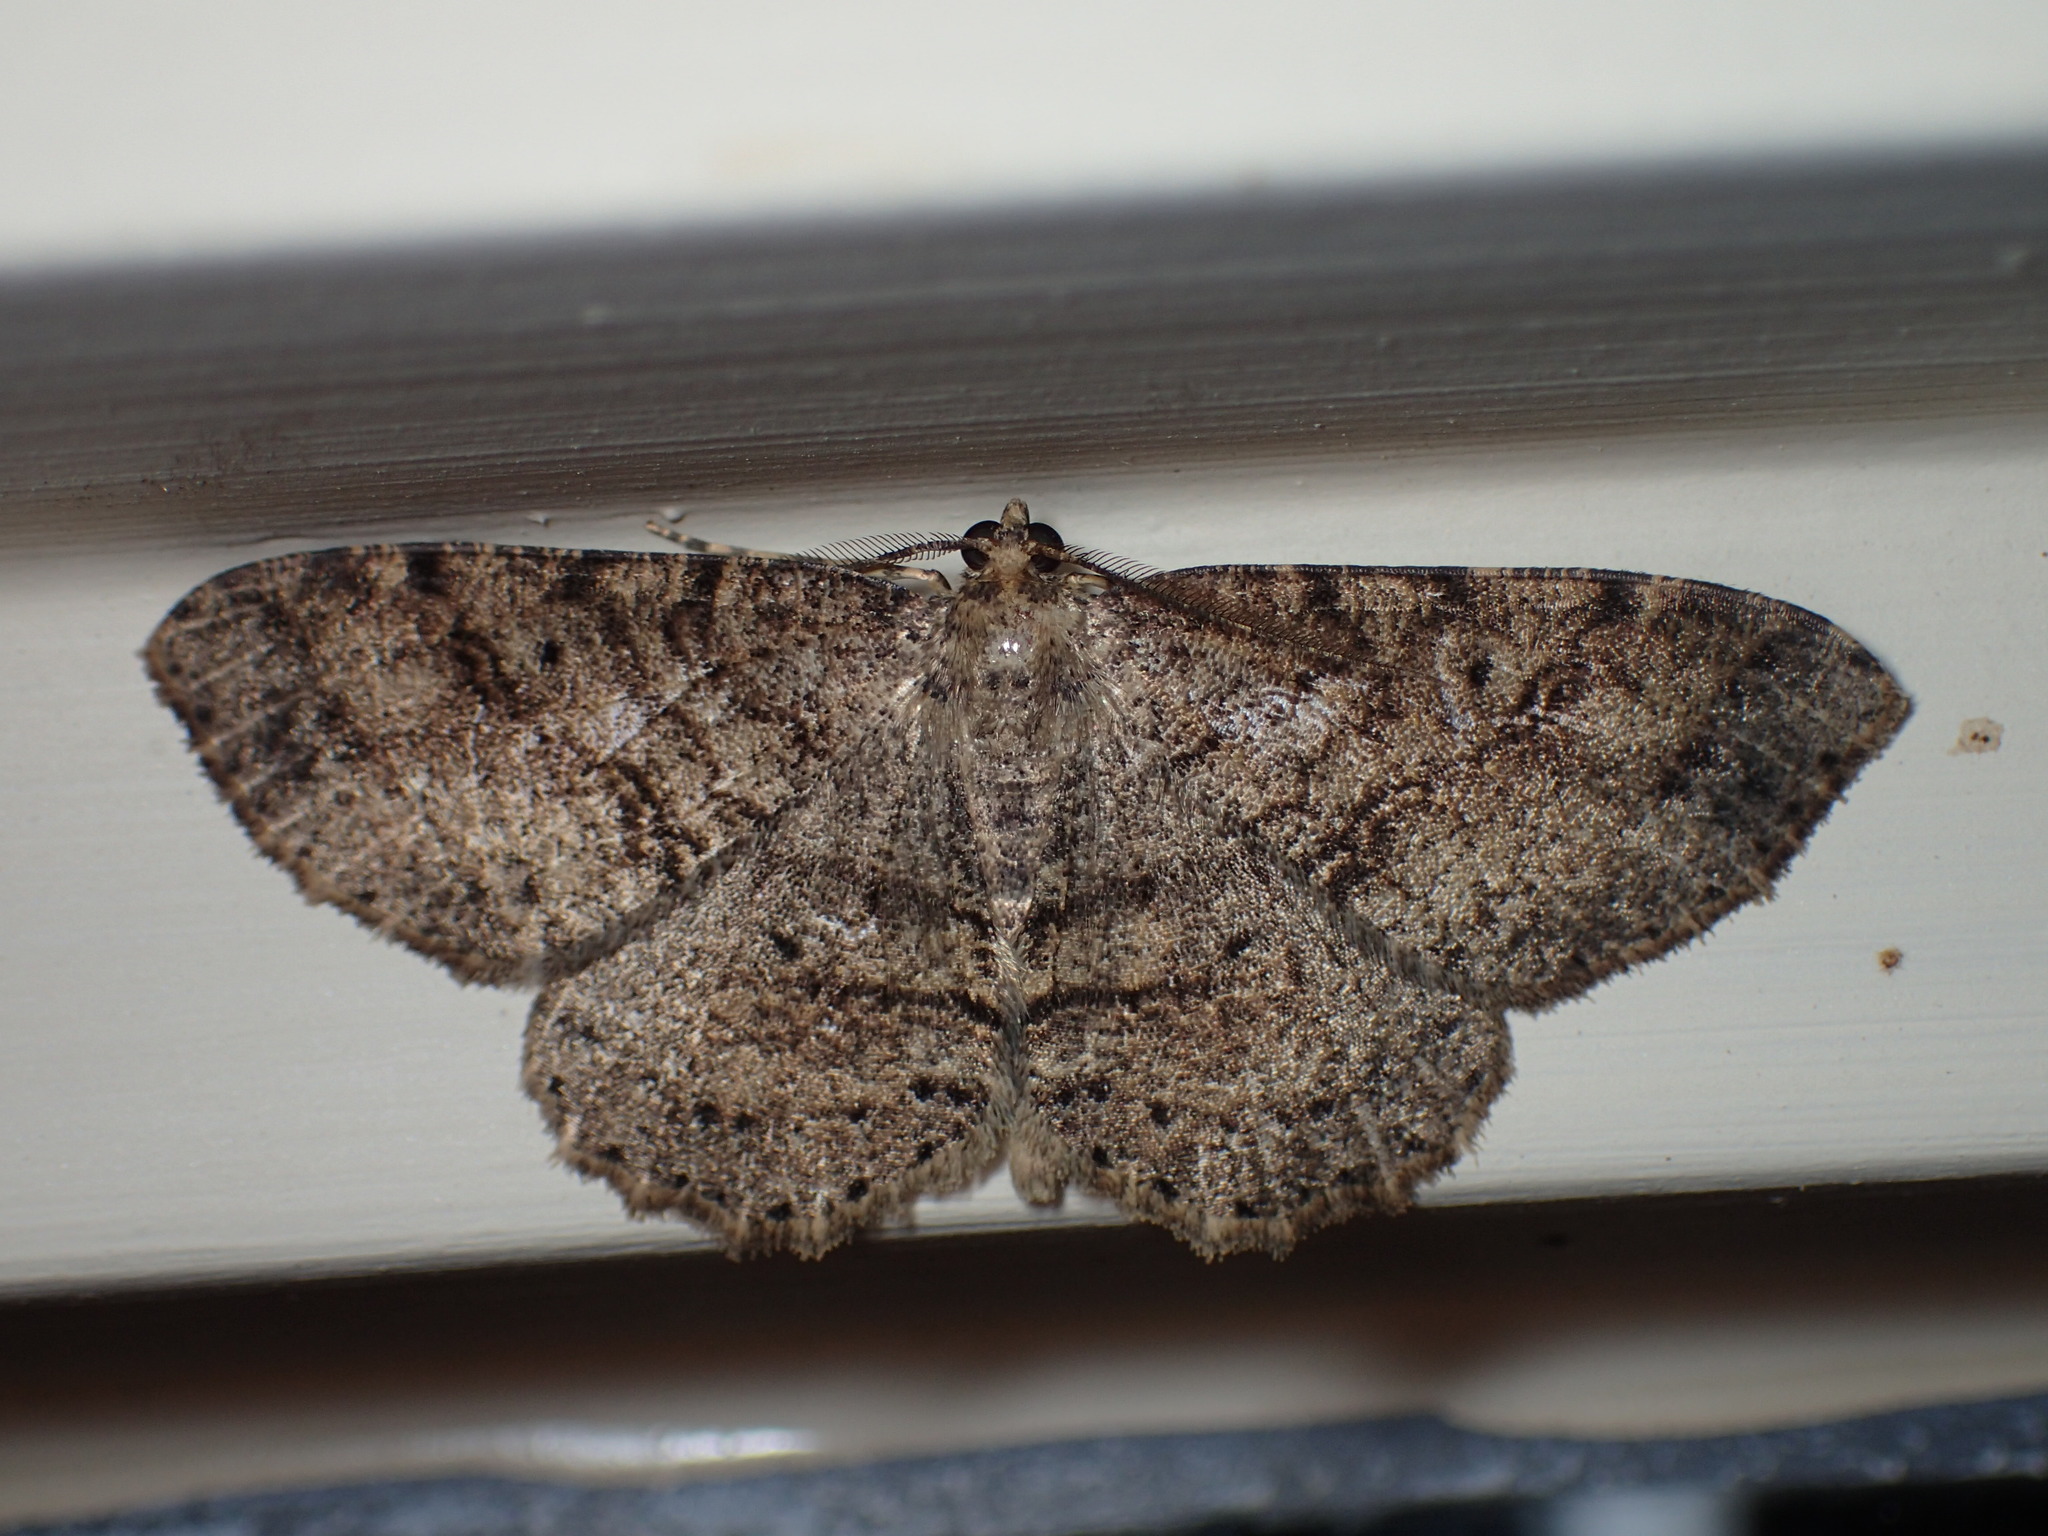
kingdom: Animalia
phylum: Arthropoda
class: Insecta
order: Lepidoptera
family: Geometridae
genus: Melanolophia
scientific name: Melanolophia signataria
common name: Signate melanolophia
